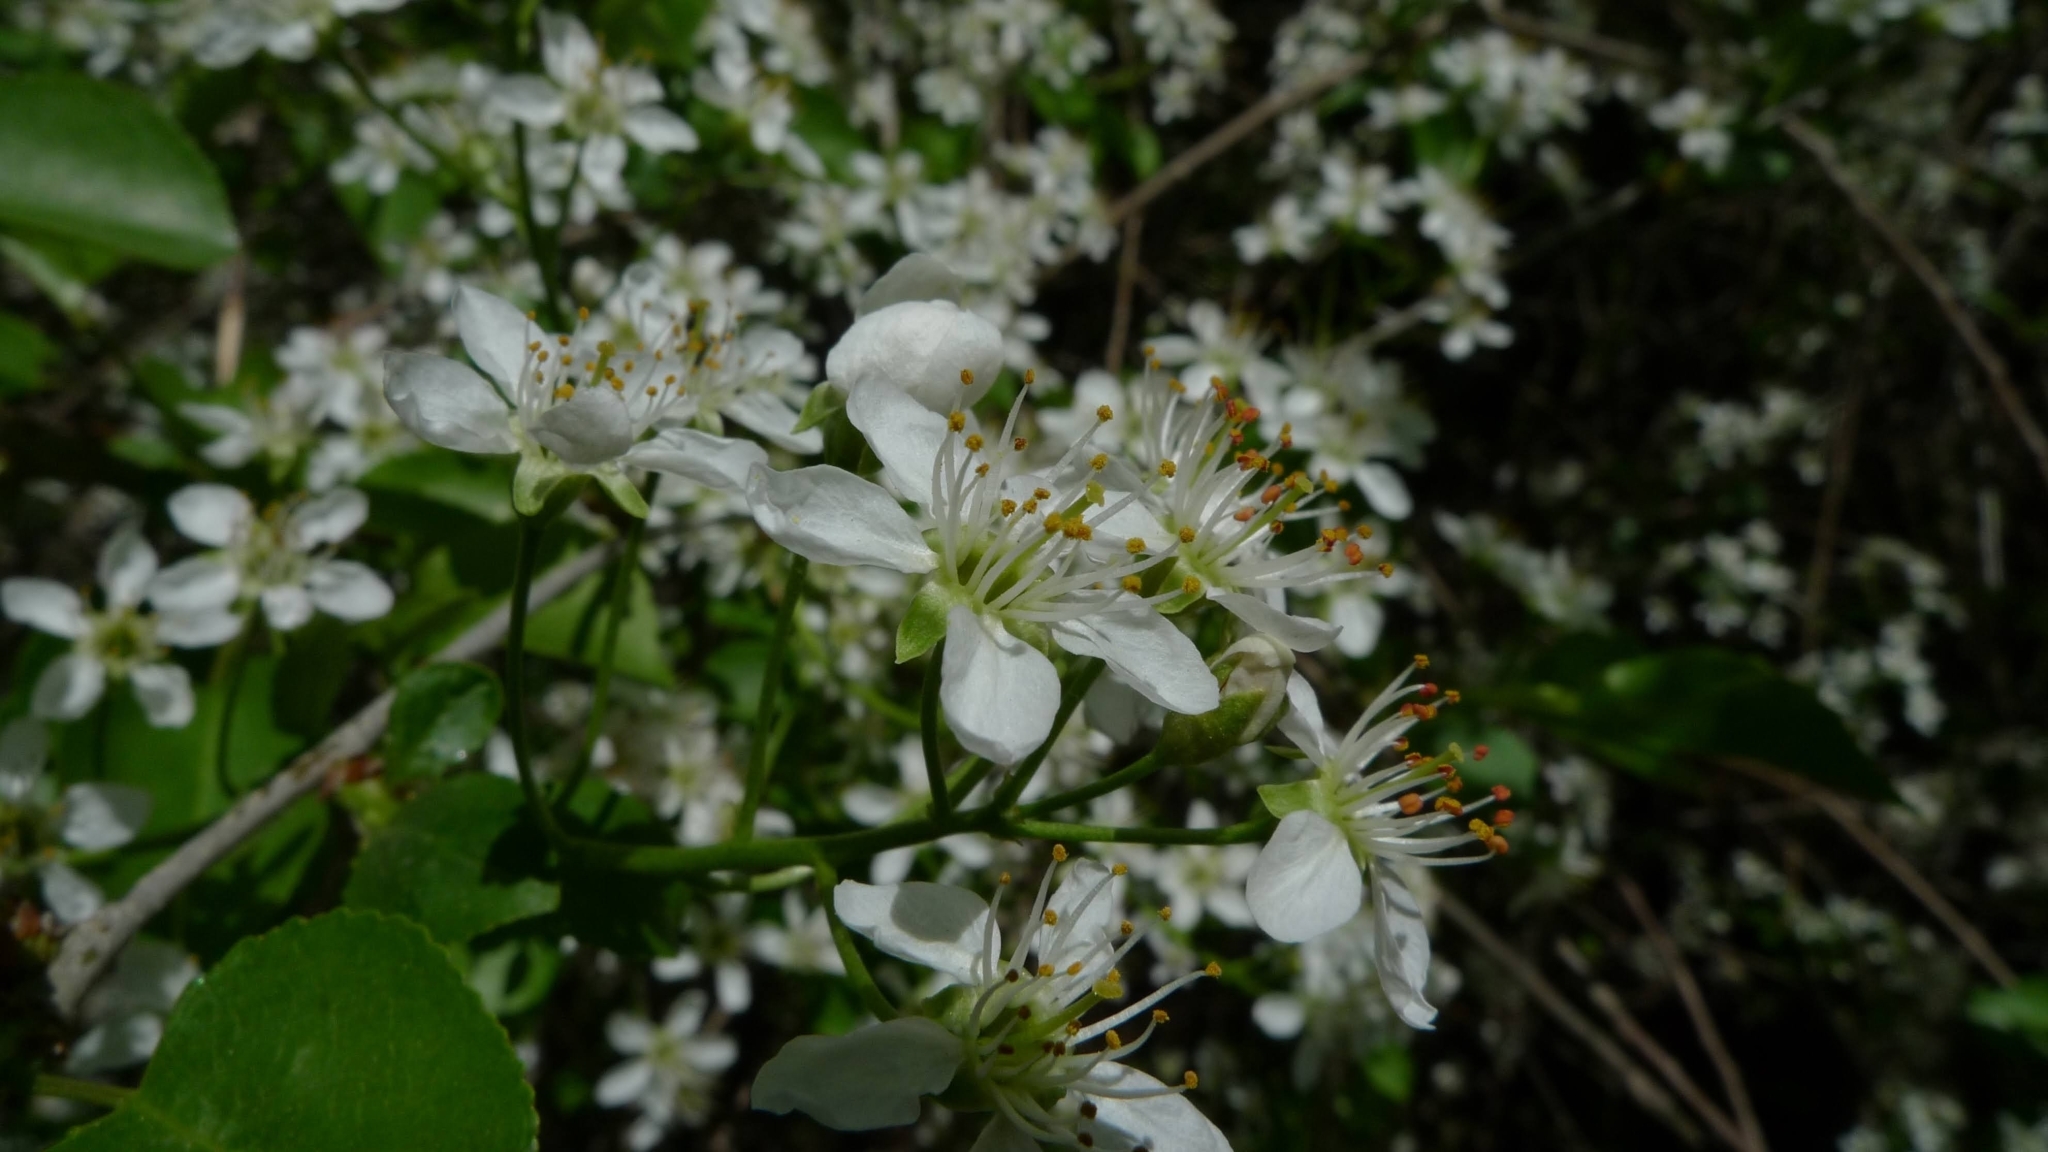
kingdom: Plantae
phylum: Tracheophyta
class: Magnoliopsida
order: Rosales
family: Rosaceae
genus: Prunus
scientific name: Prunus mahaleb
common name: Mahaleb cherry
